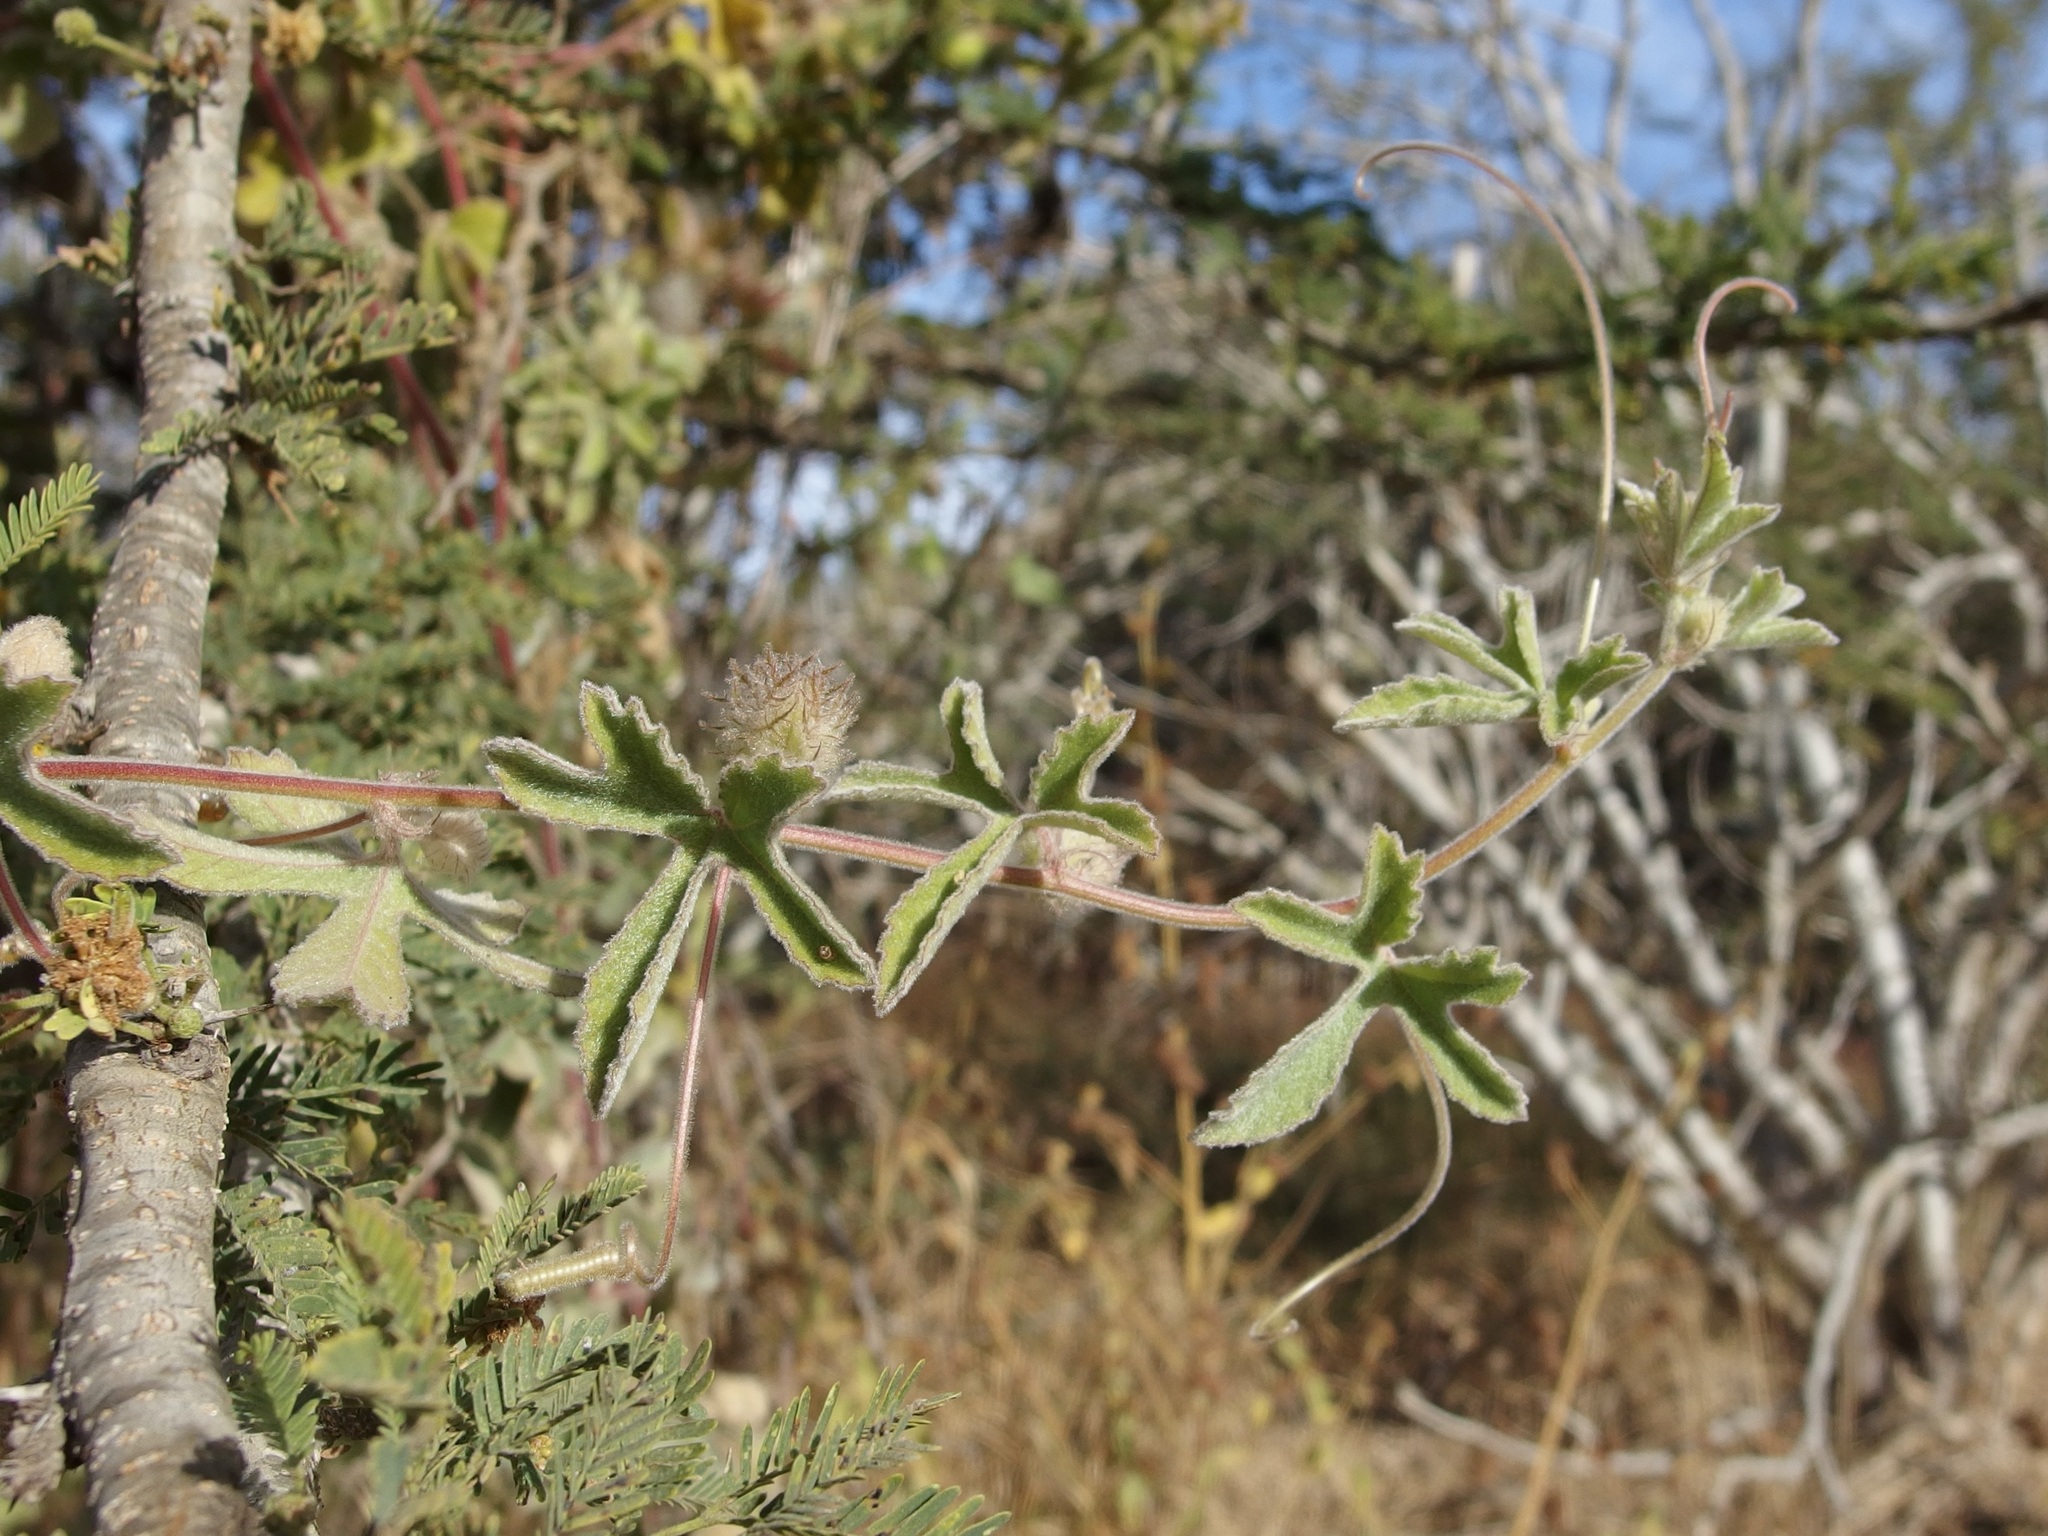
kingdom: Plantae
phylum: Tracheophyta
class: Magnoliopsida
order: Malpighiales
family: Passifloraceae
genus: Passiflora
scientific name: Passiflora pentaschista
